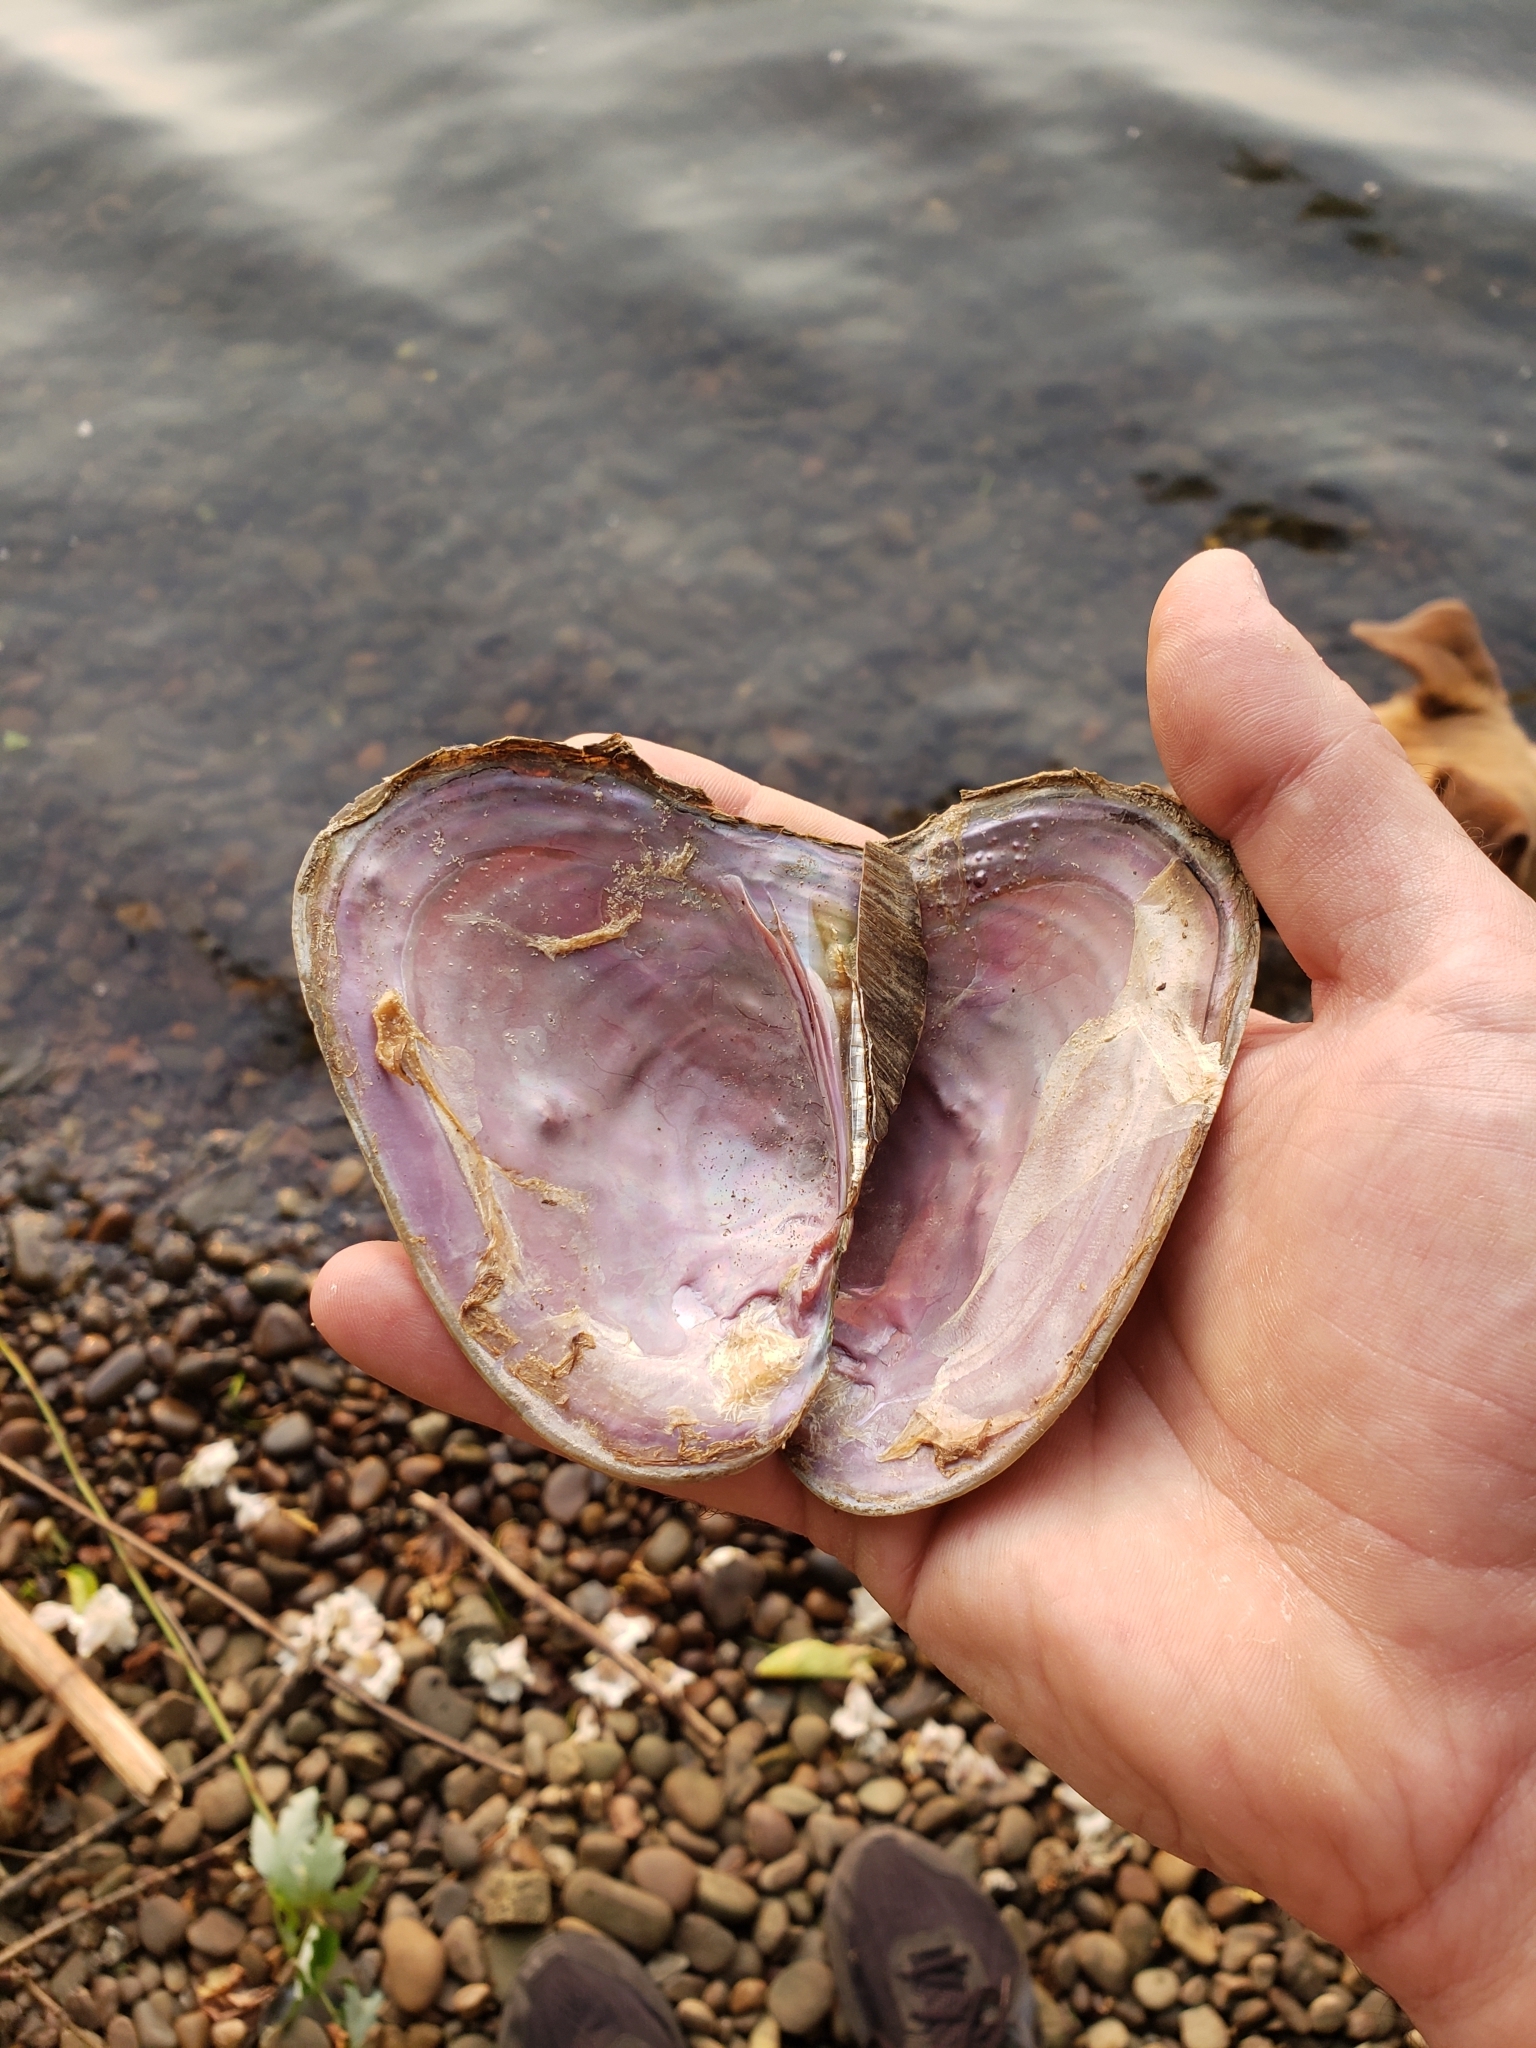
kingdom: Animalia
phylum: Mollusca
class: Bivalvia
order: Unionida
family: Unionidae
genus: Potamilus
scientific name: Potamilus alatus
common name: Pink heelsplitter
